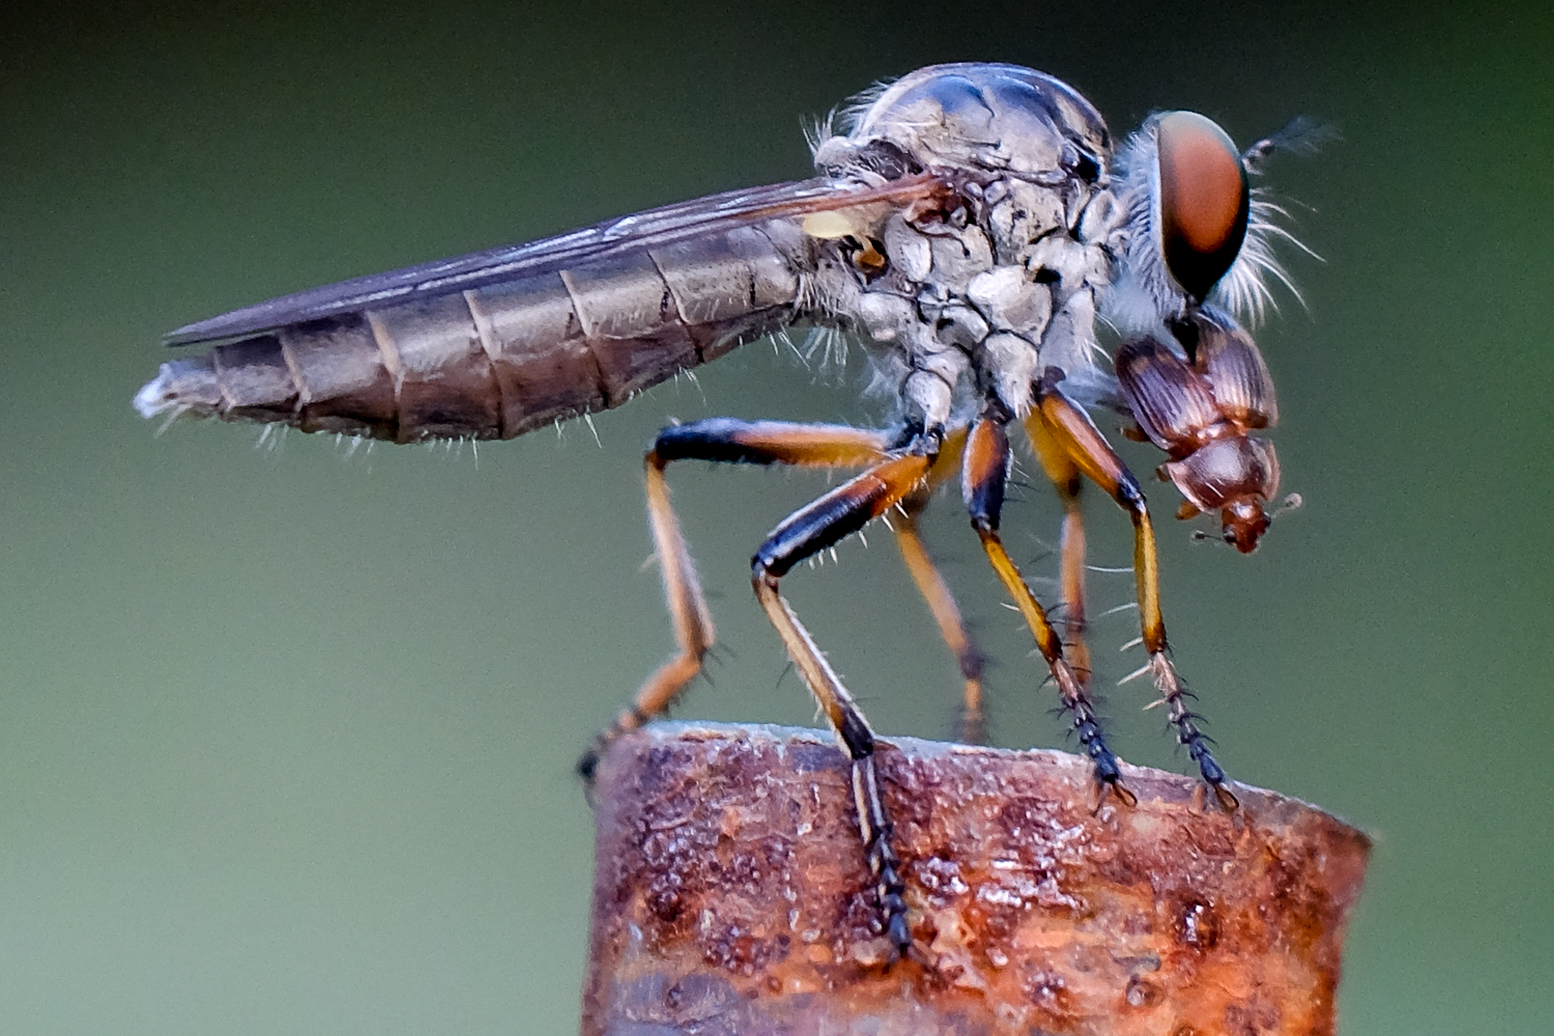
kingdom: Animalia
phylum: Arthropoda
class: Insecta
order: Diptera
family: Asilidae
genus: Ommatius
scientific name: Ommatius
